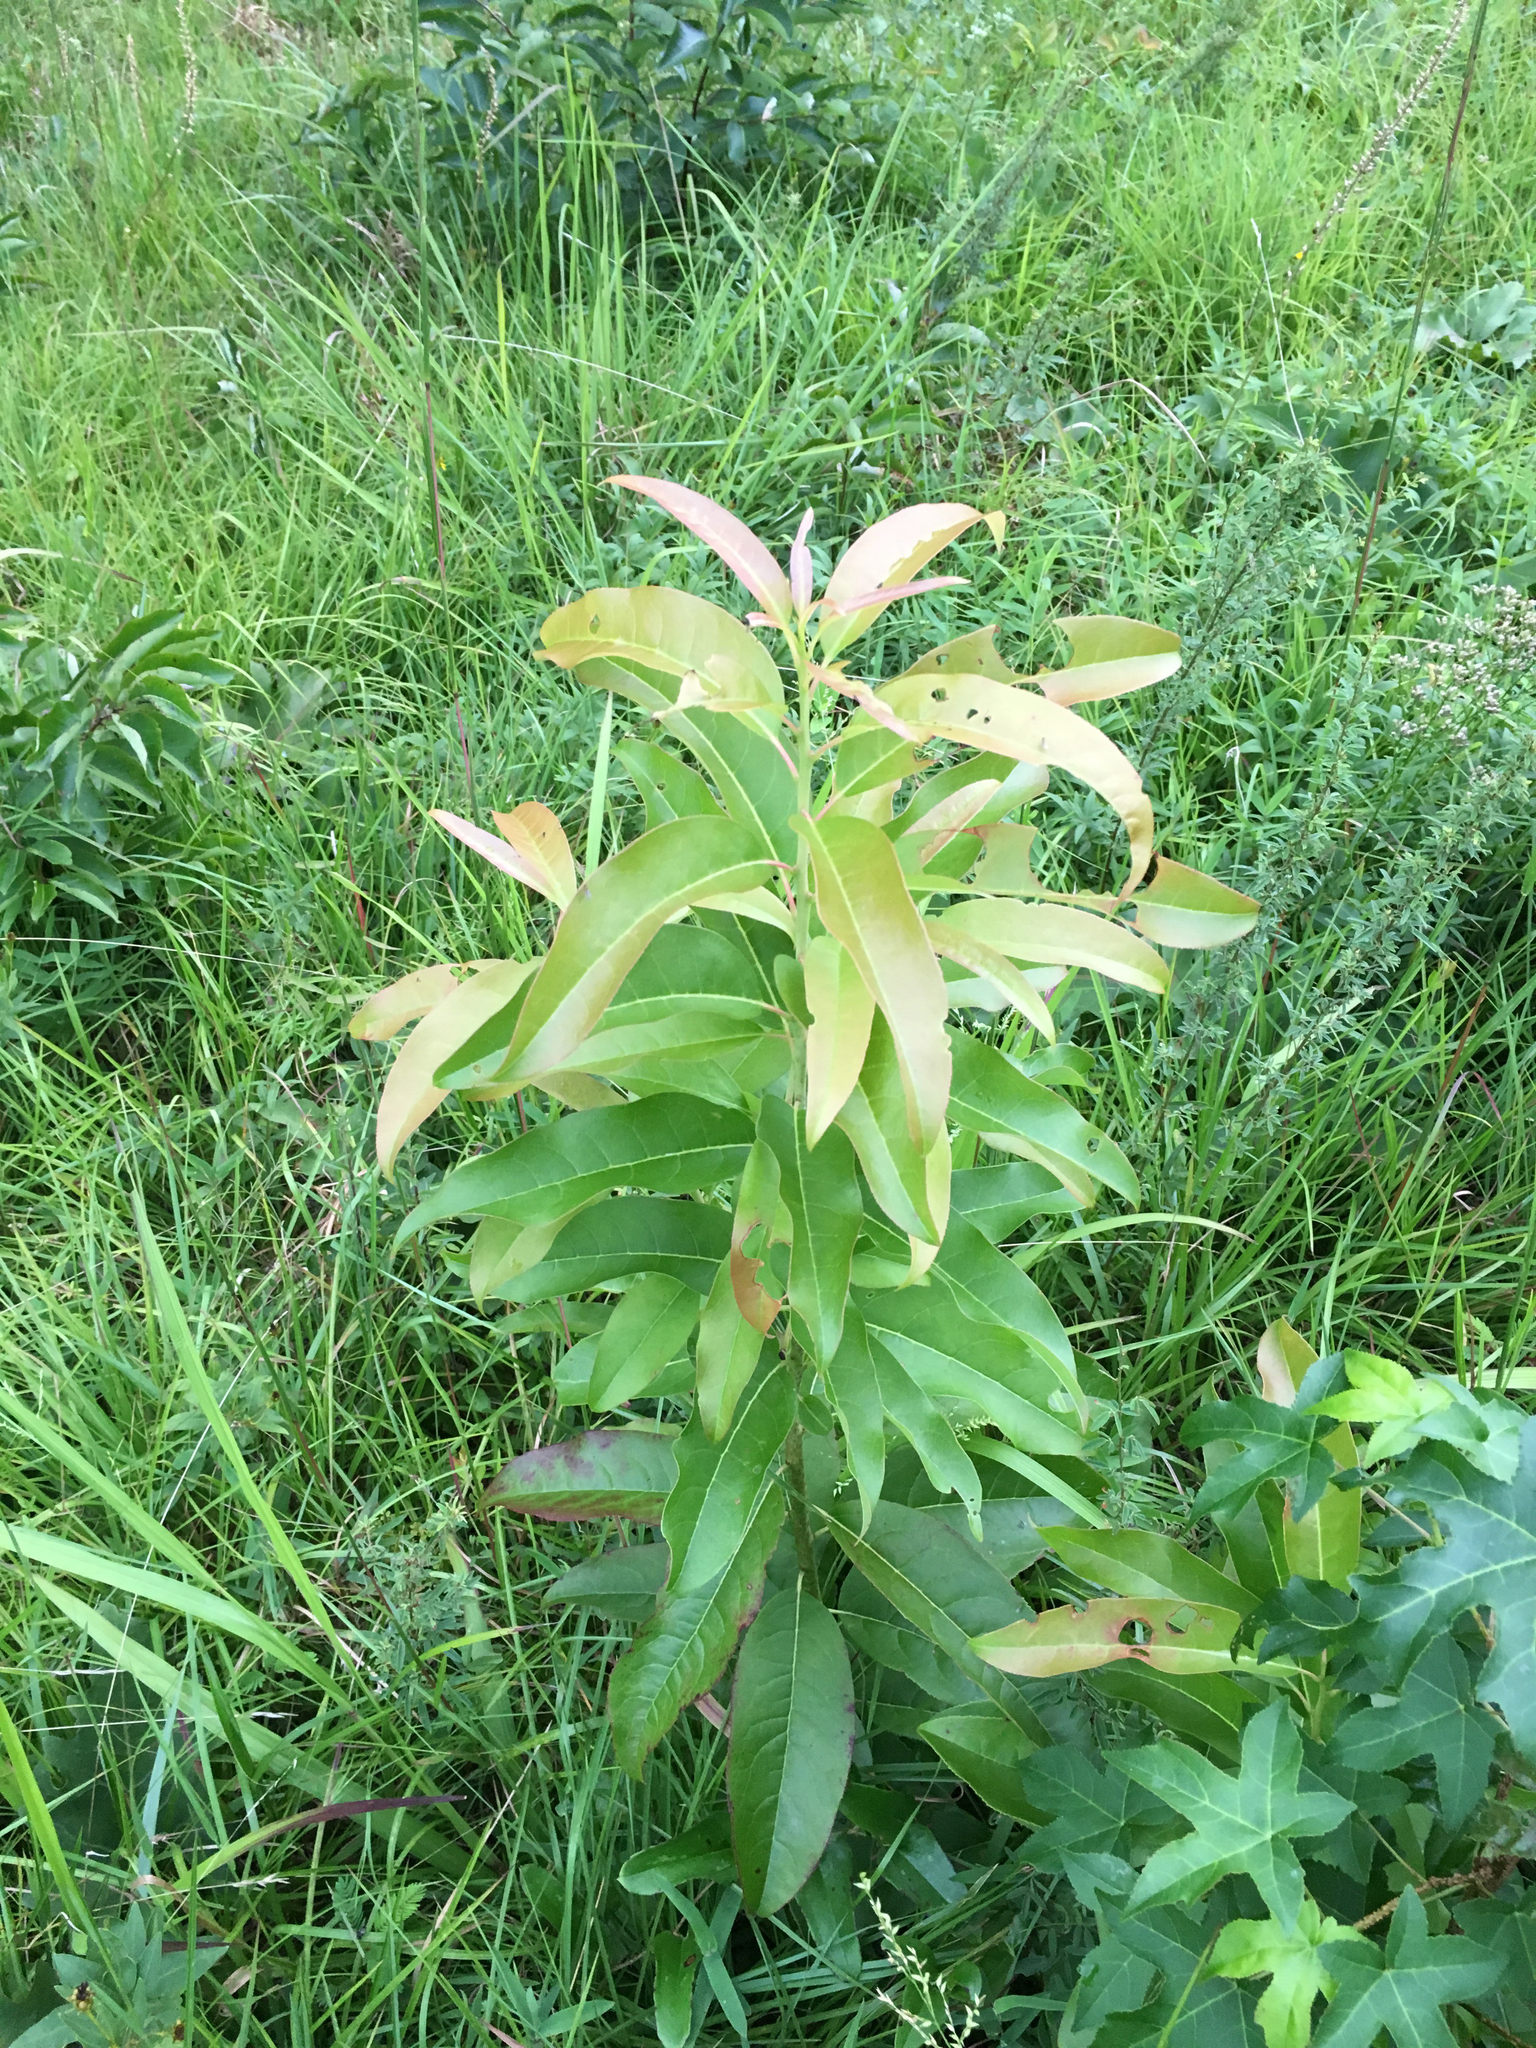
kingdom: Plantae
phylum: Tracheophyta
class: Magnoliopsida
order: Ericales
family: Ericaceae
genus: Oxydendrum
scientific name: Oxydendrum arboreum
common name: Sourwood
